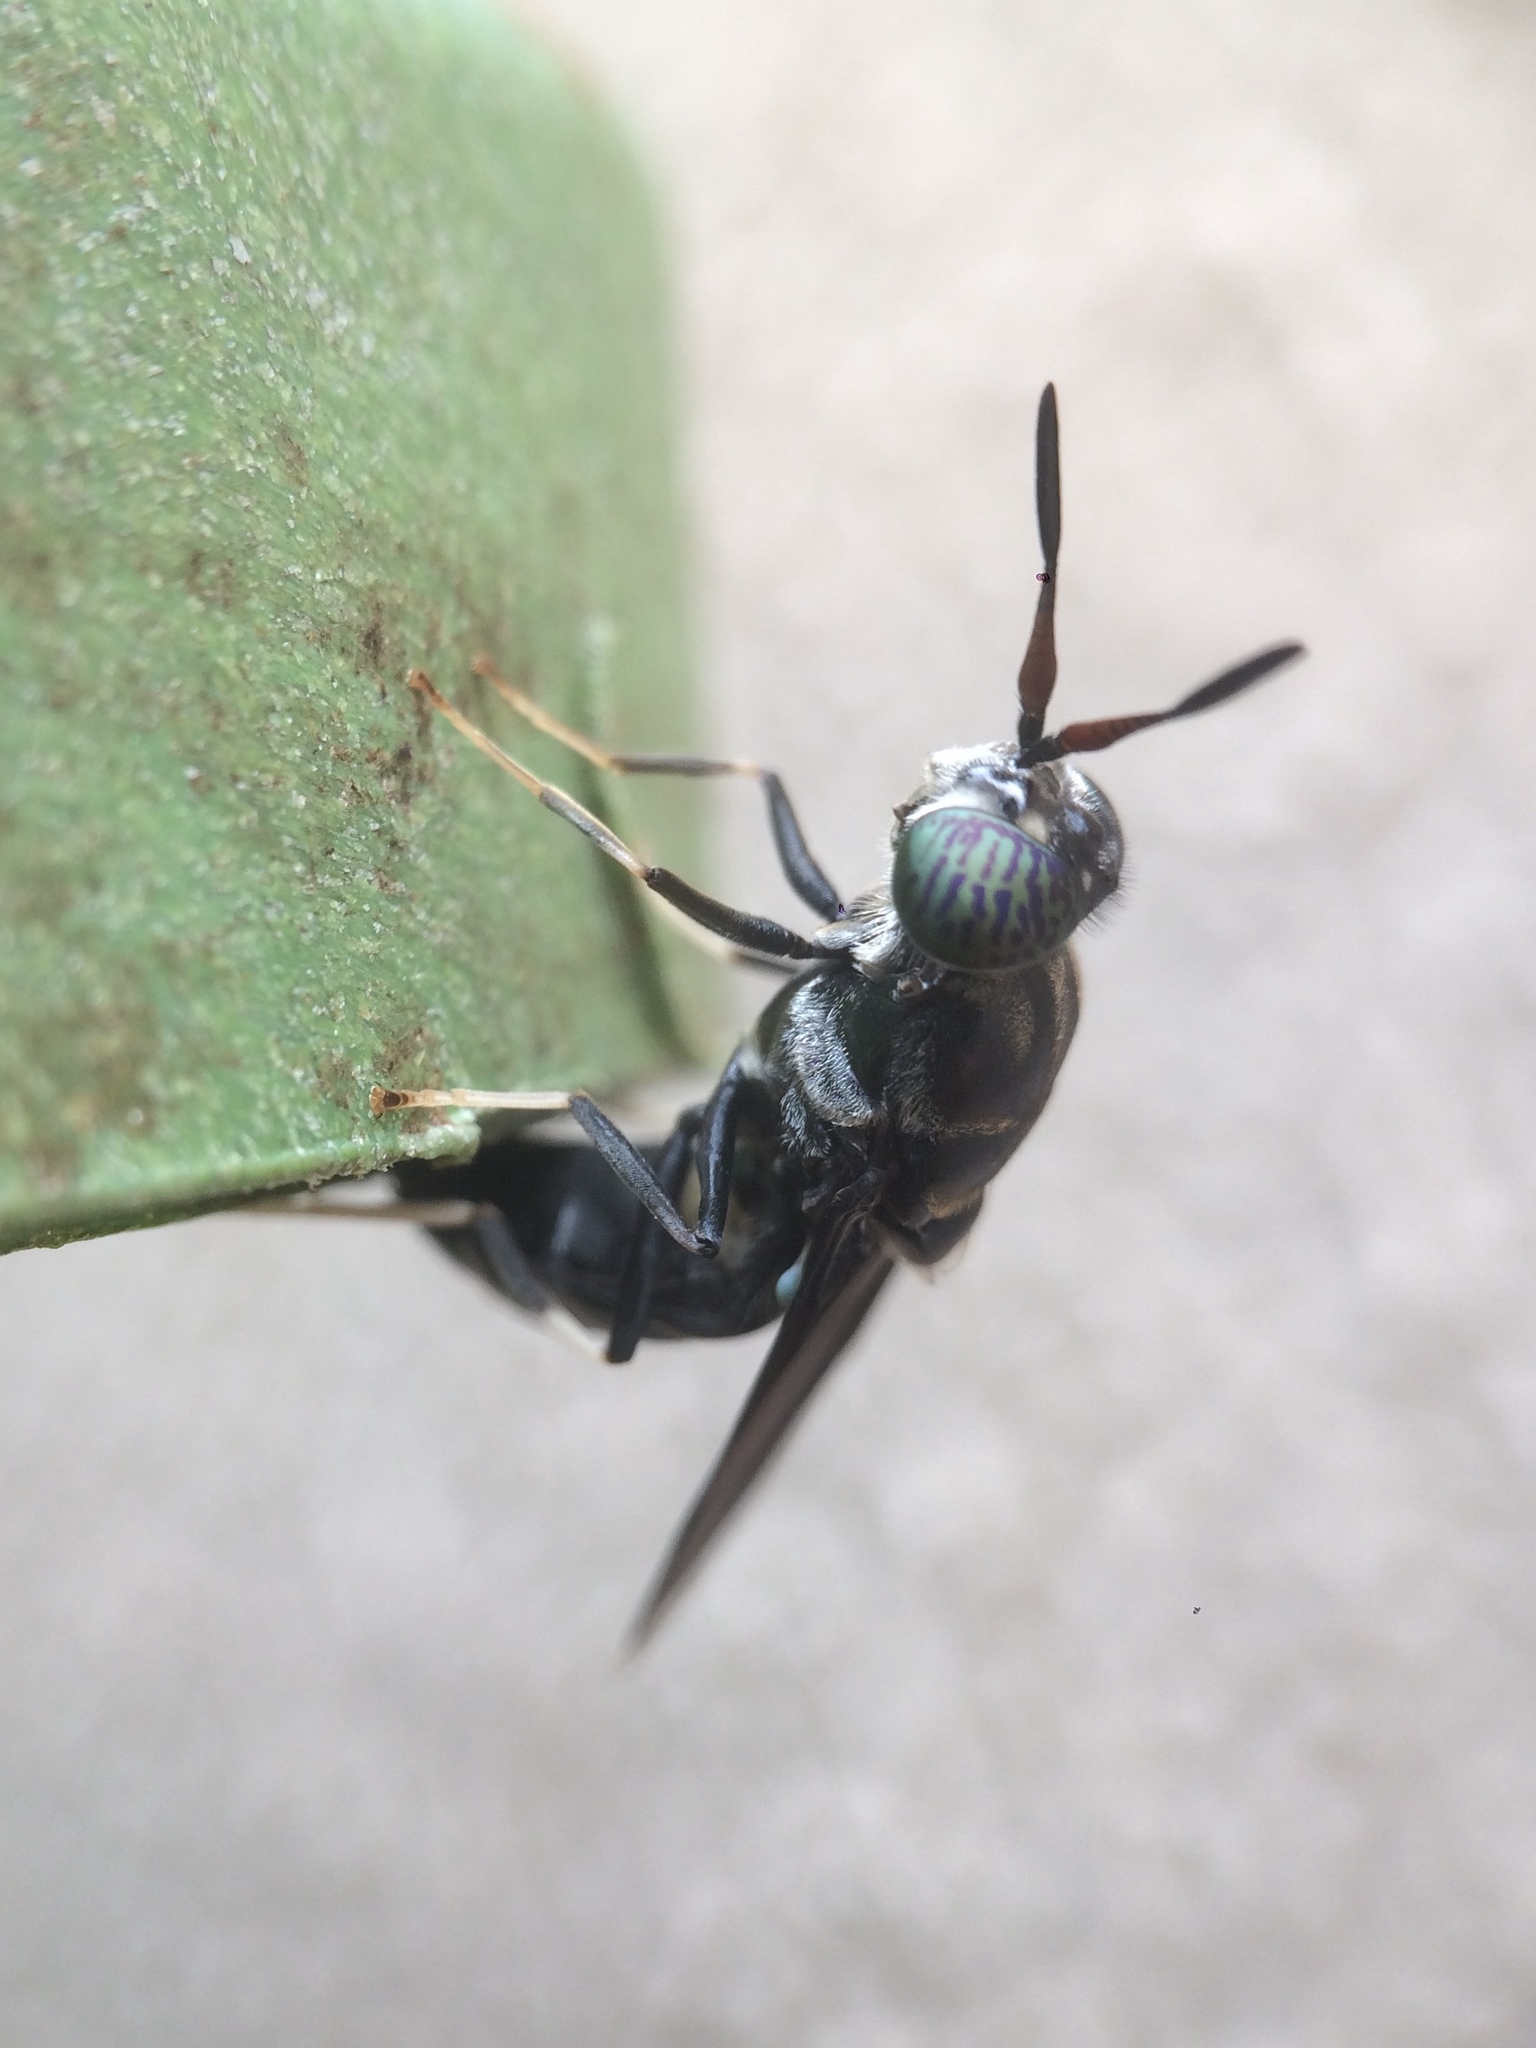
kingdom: Animalia
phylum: Arthropoda
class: Insecta
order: Diptera
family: Stratiomyidae
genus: Hermetia
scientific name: Hermetia illucens
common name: Black soldier fly
